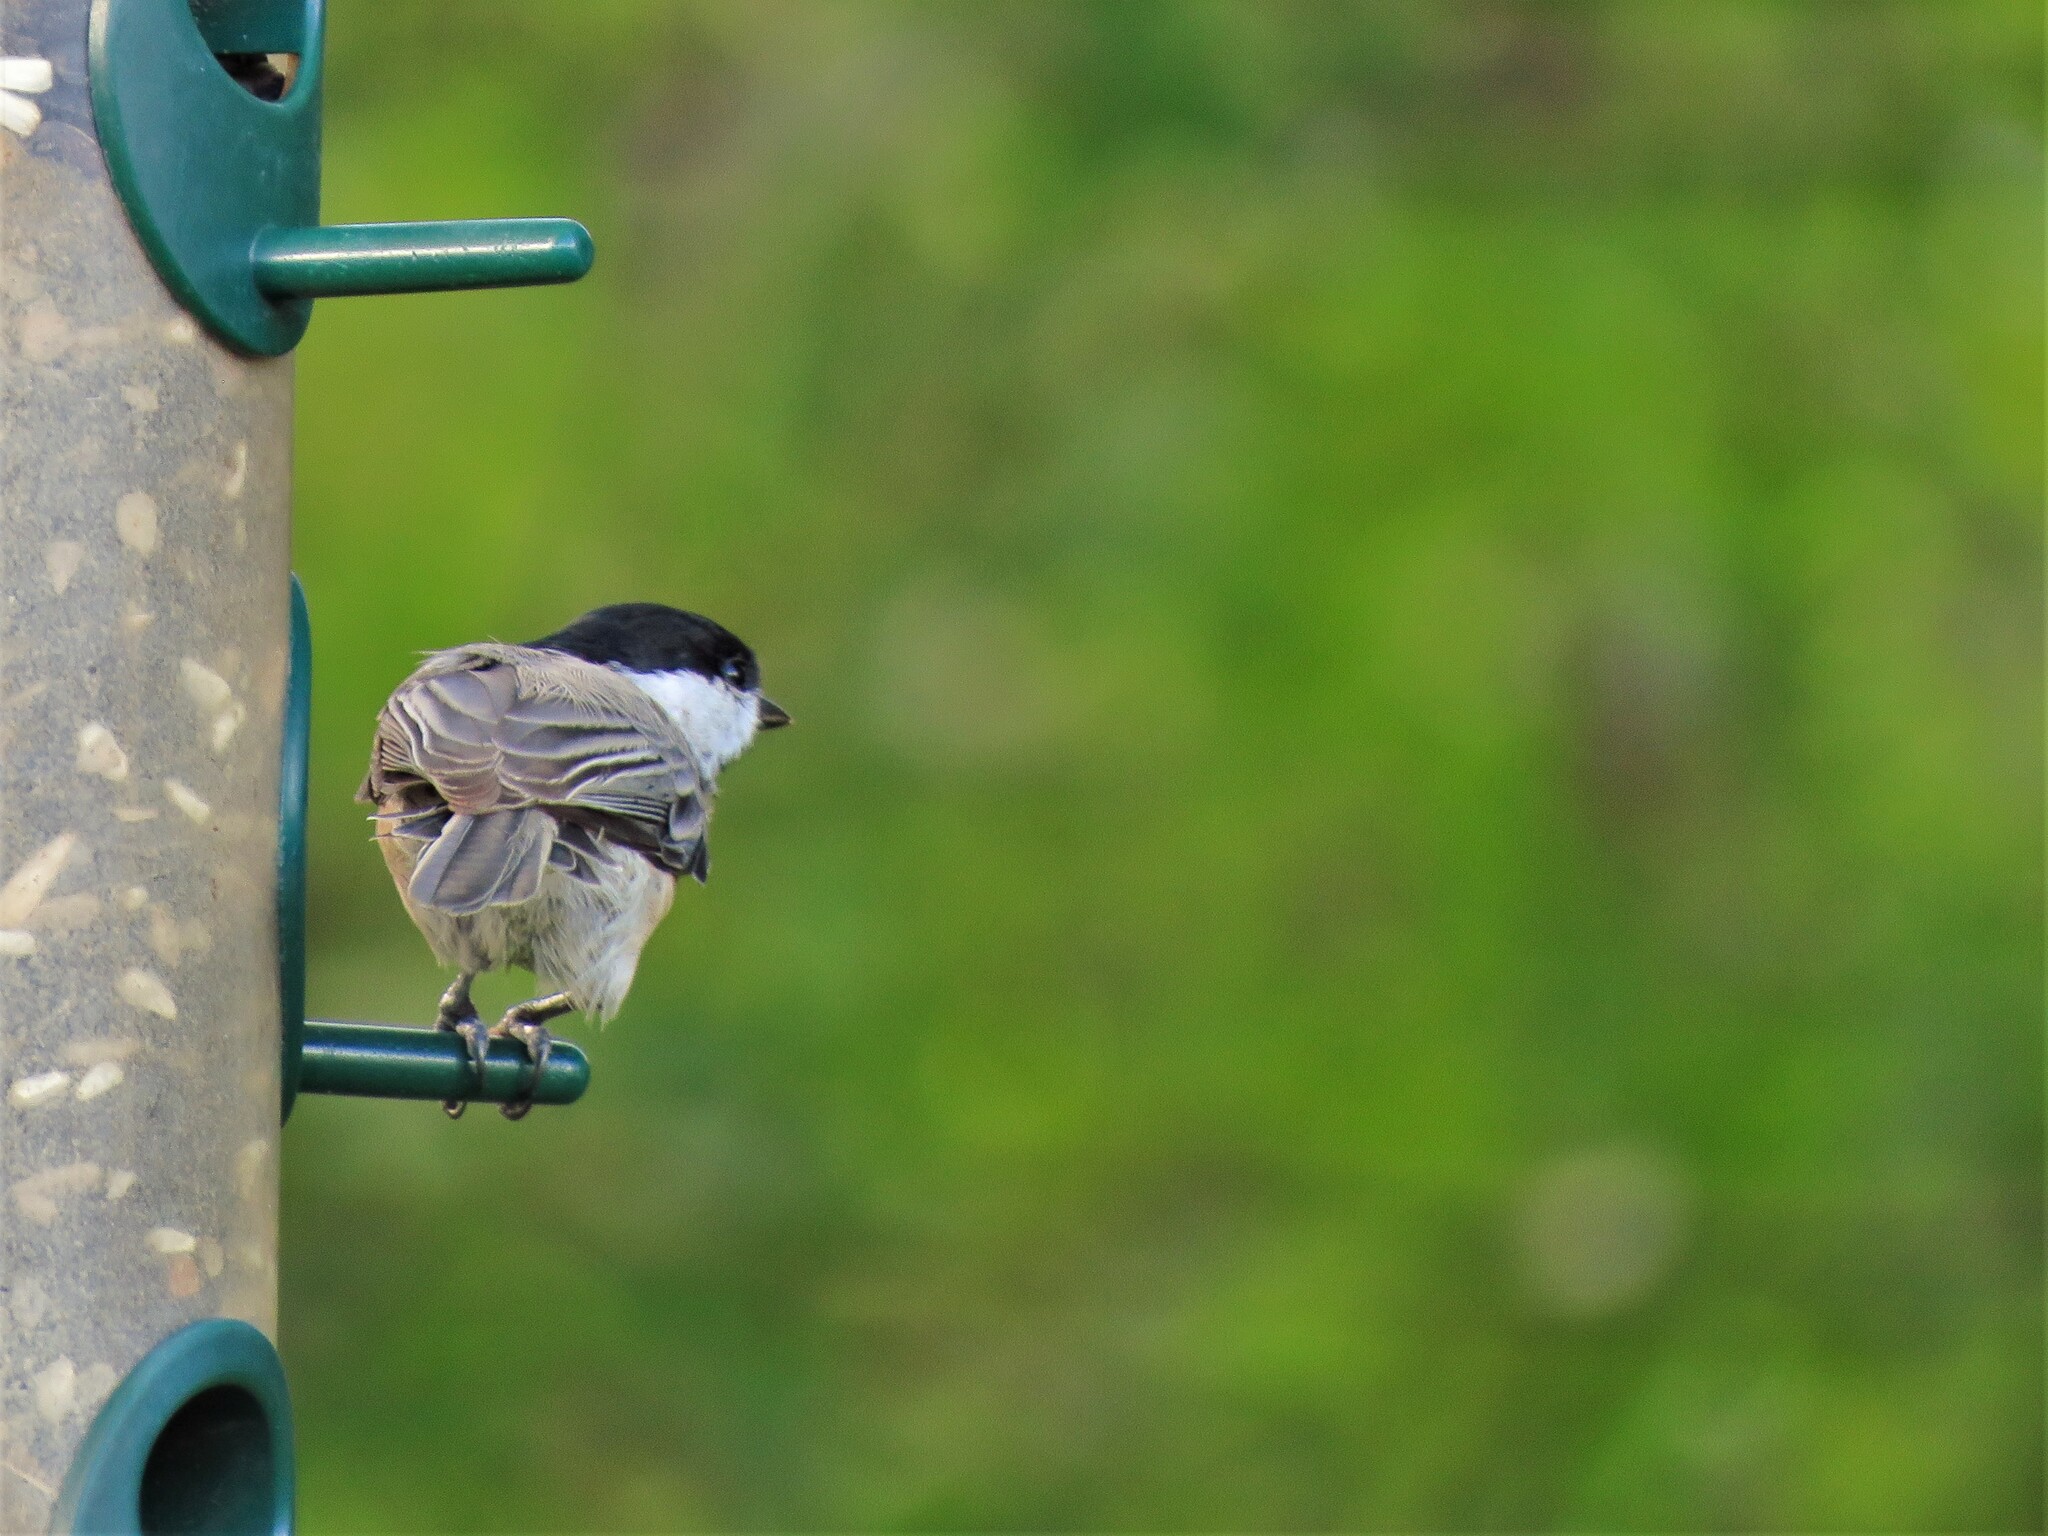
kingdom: Animalia
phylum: Chordata
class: Aves
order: Passeriformes
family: Paridae
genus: Poecile
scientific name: Poecile carolinensis
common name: Carolina chickadee
